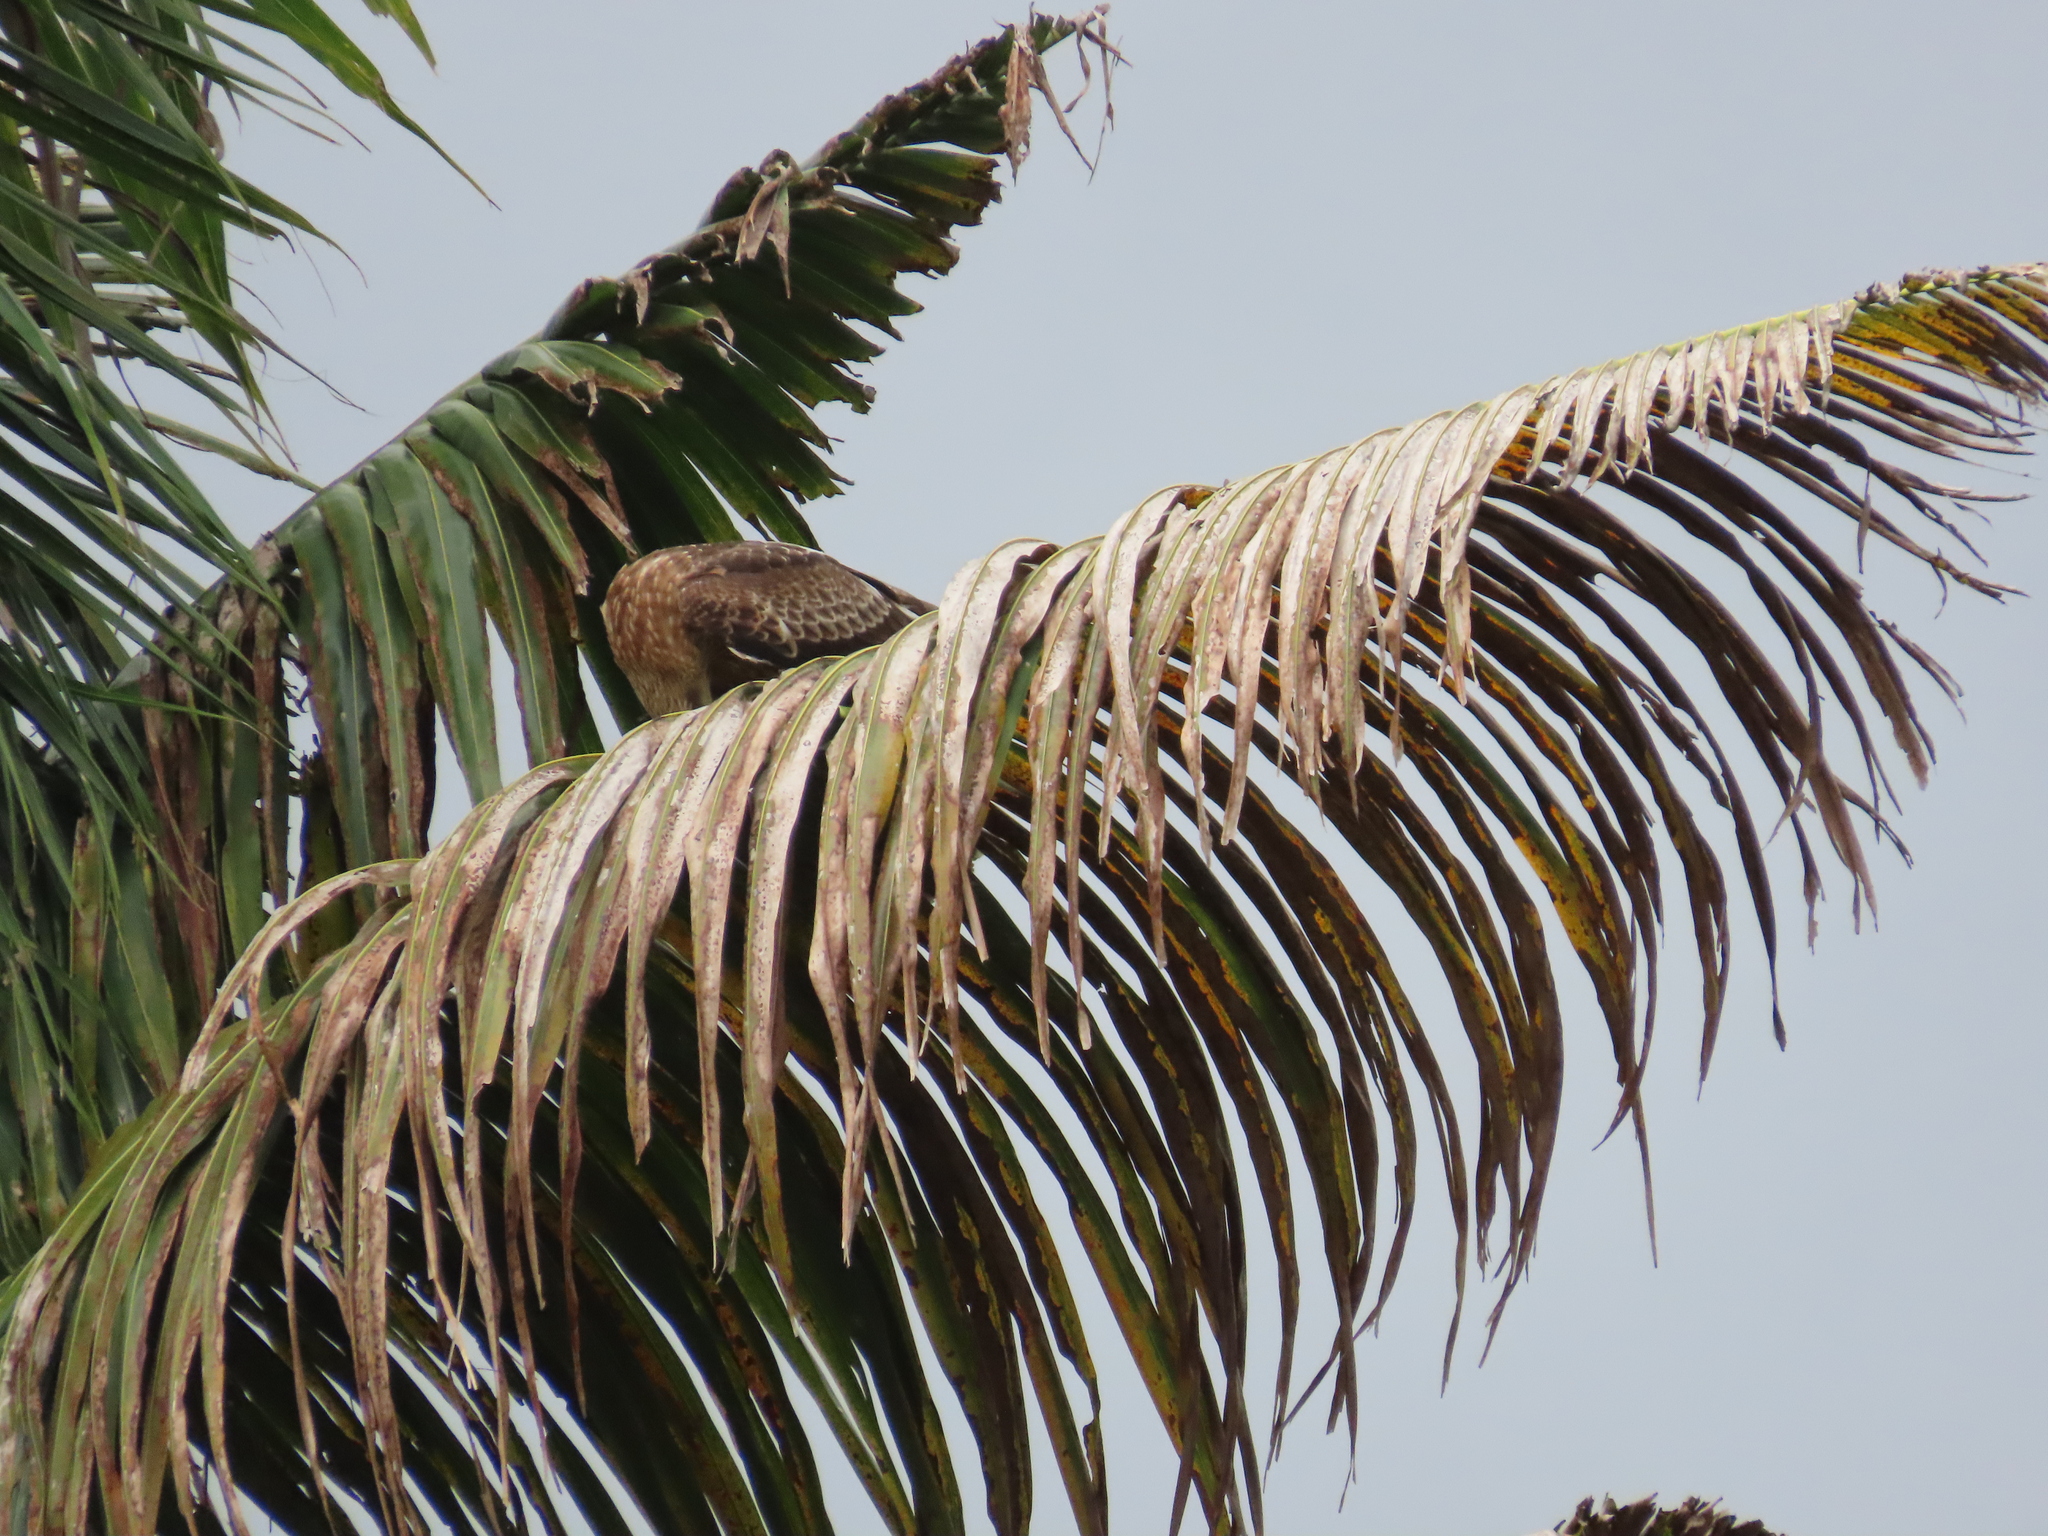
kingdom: Animalia
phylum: Chordata
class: Aves
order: Accipitriformes
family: Accipitridae
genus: Haliastur
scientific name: Haliastur indus
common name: Brahminy kite
